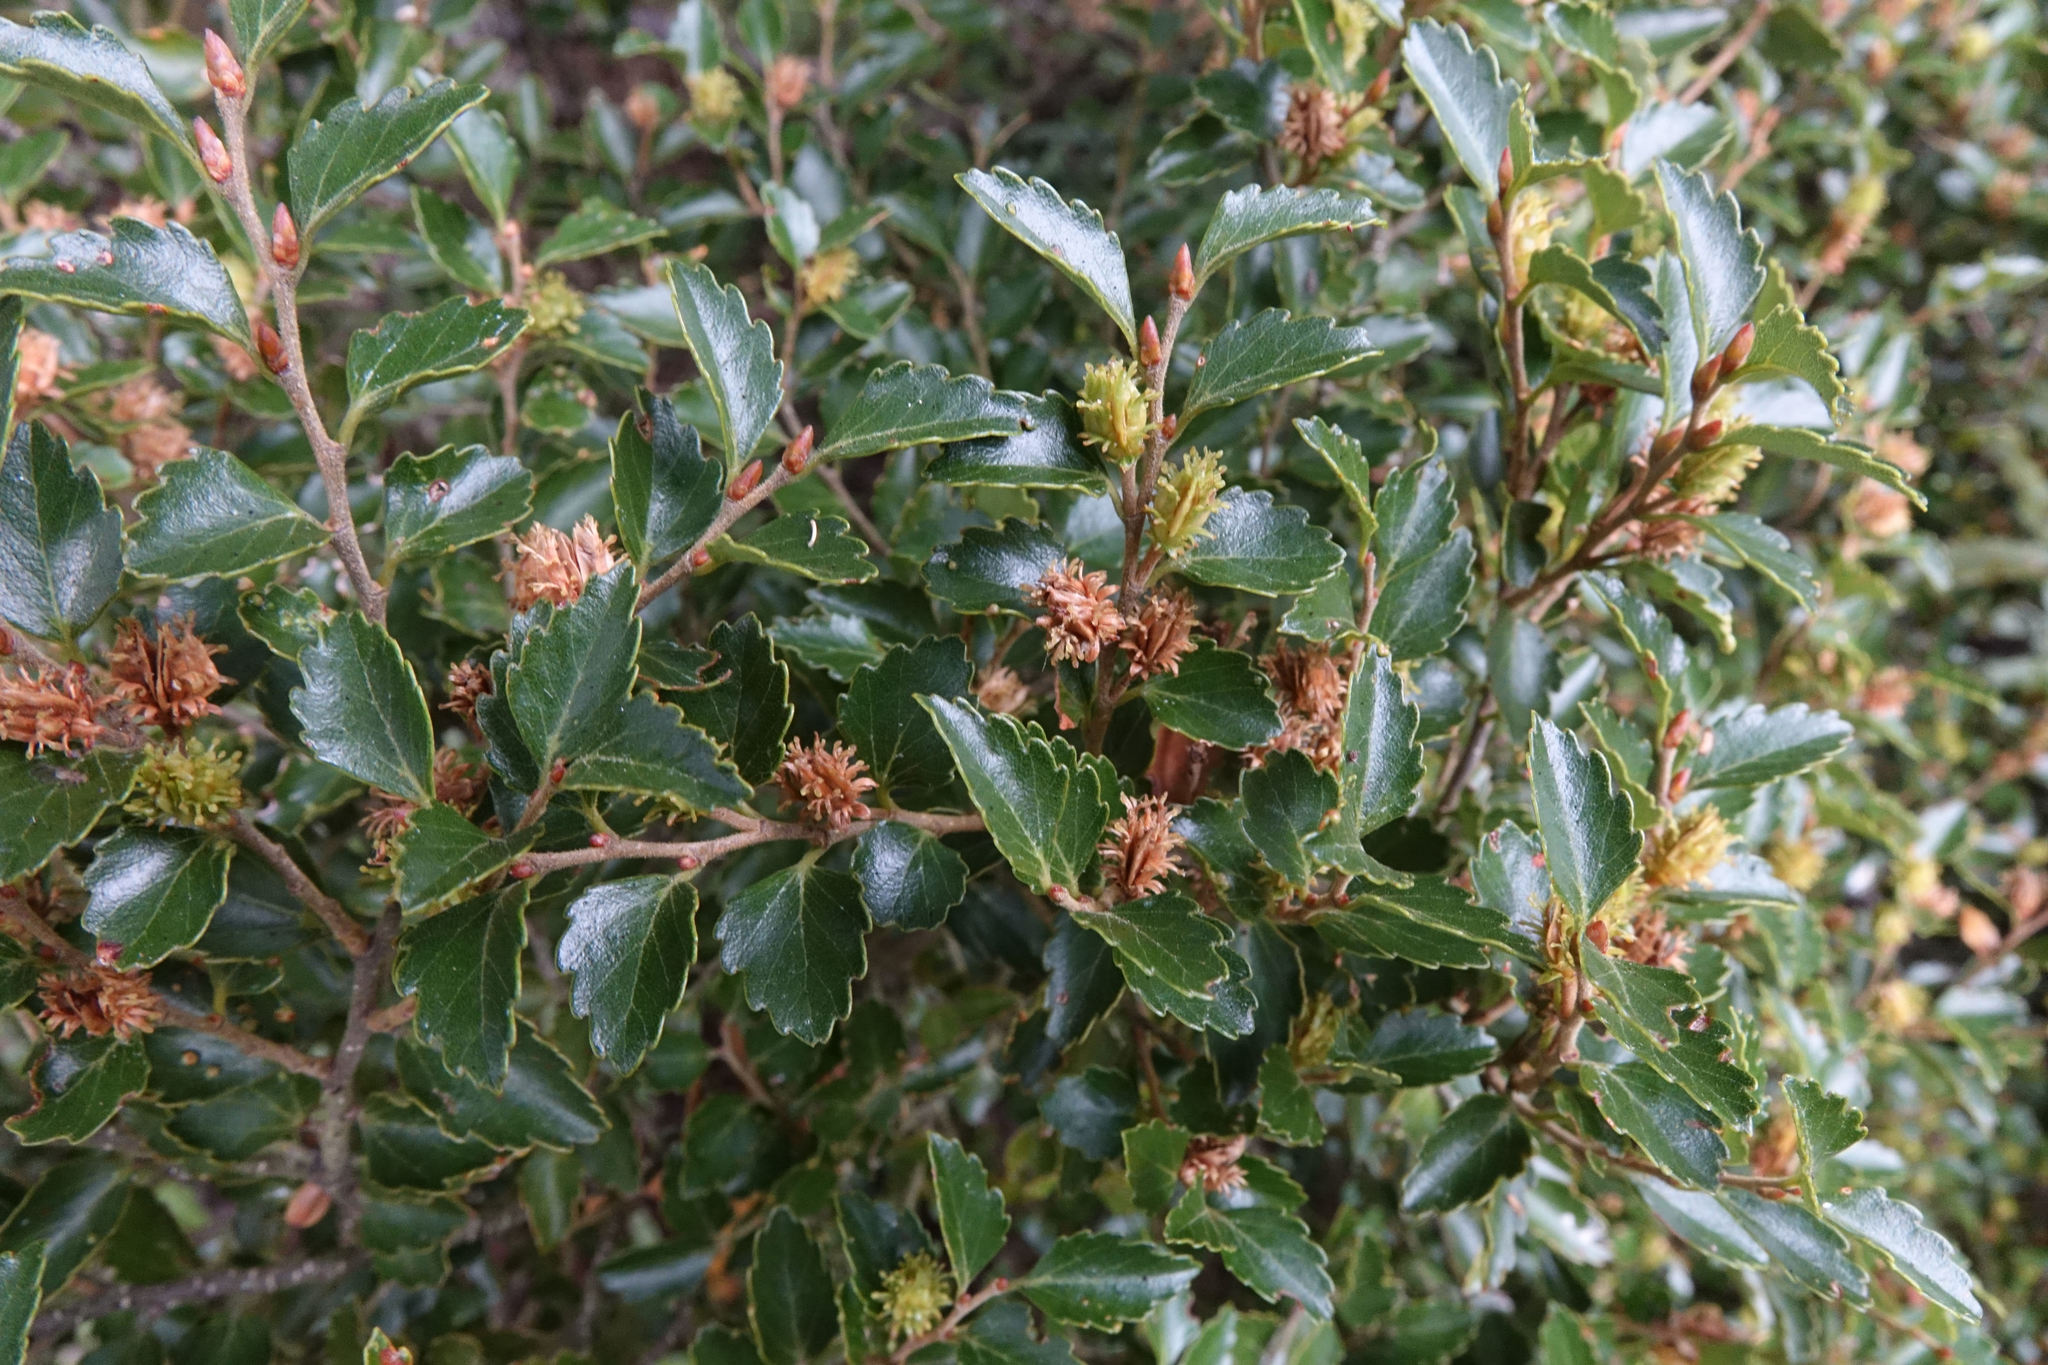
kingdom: Plantae
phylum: Tracheophyta
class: Magnoliopsida
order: Fagales
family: Nothofagaceae
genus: Nothofagus
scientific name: Nothofagus menziesii
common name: Silver beech
